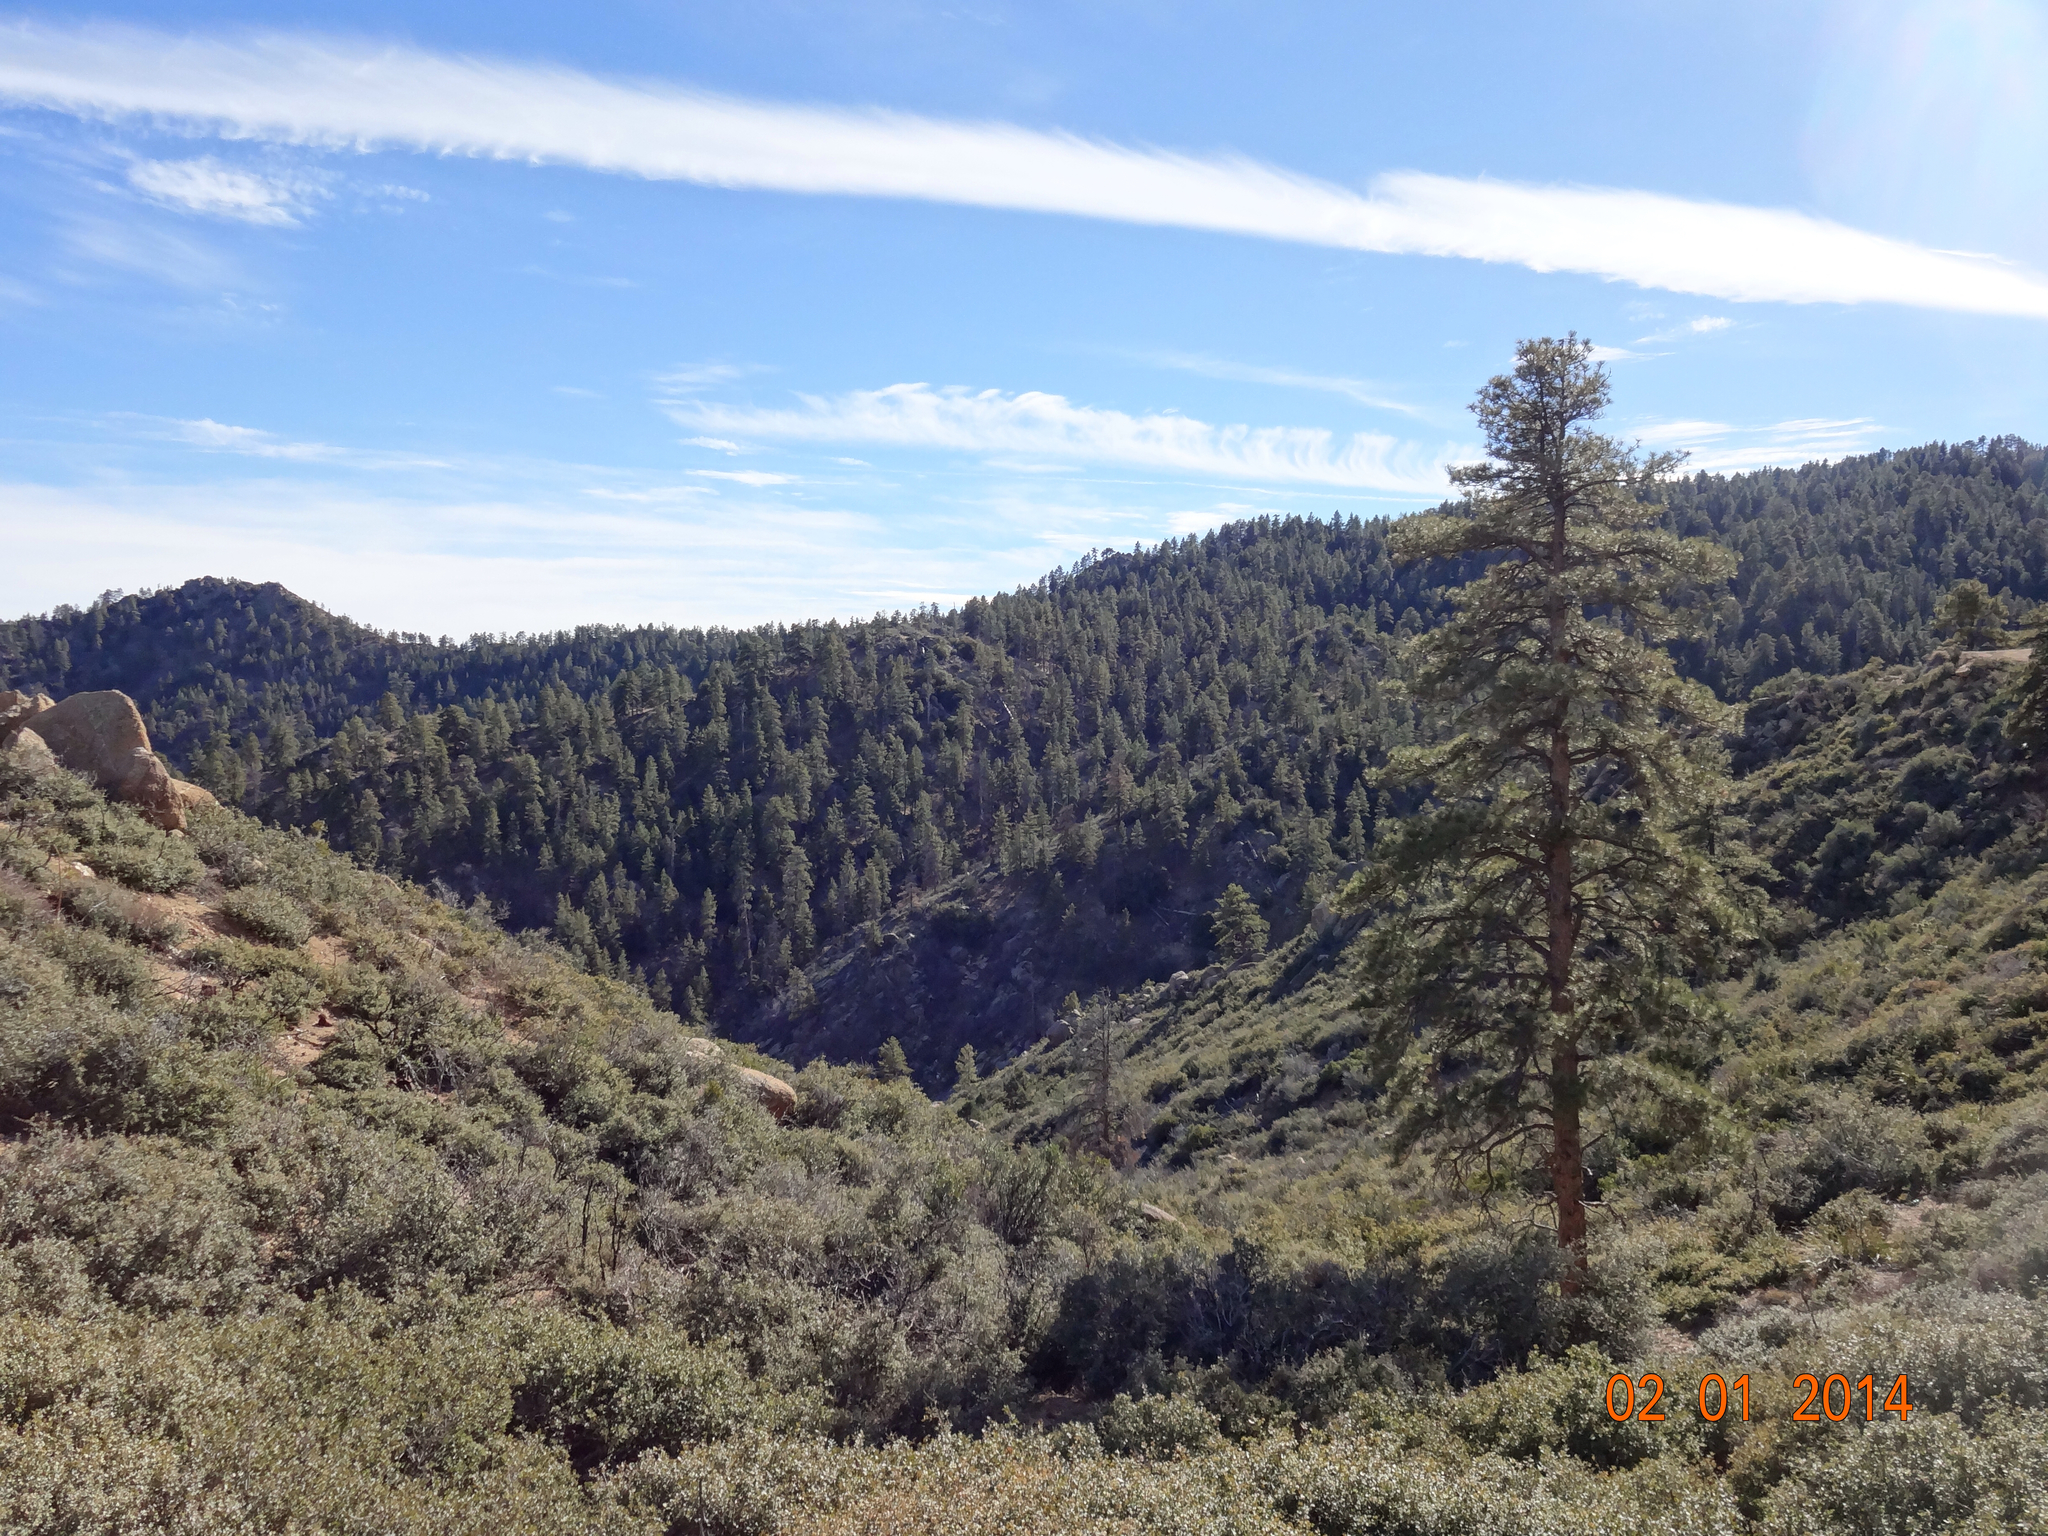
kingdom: Plantae
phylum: Tracheophyta
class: Pinopsida
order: Pinales
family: Pinaceae
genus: Pinus
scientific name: Pinus ponderosa
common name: Western yellow-pine
